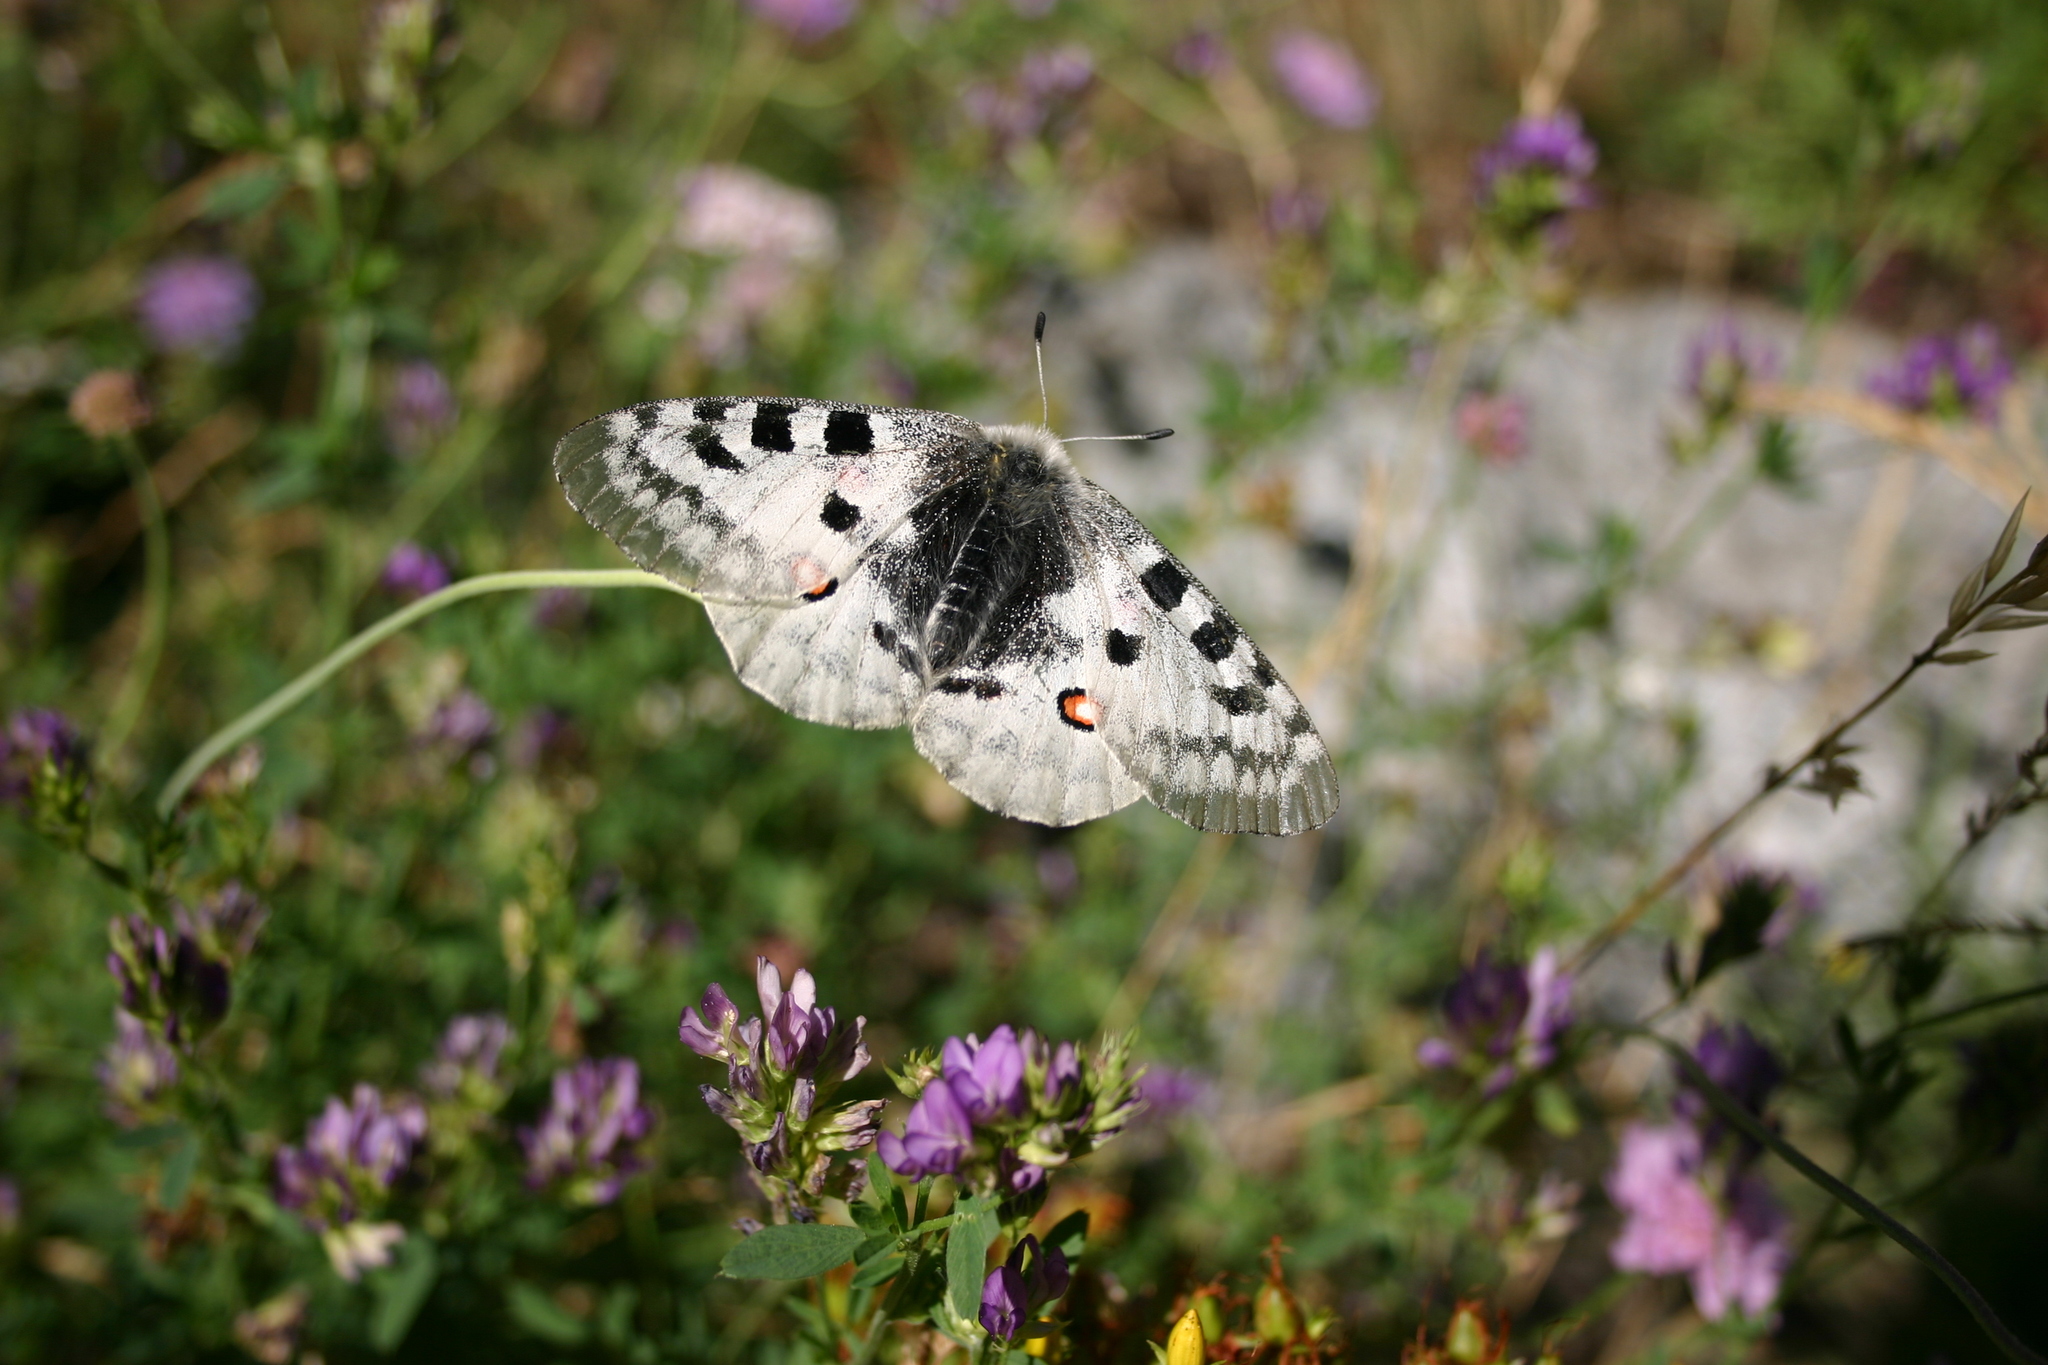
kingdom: Animalia
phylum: Arthropoda
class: Insecta
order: Lepidoptera
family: Papilionidae
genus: Parnassius
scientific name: Parnassius apollo
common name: Apollo
